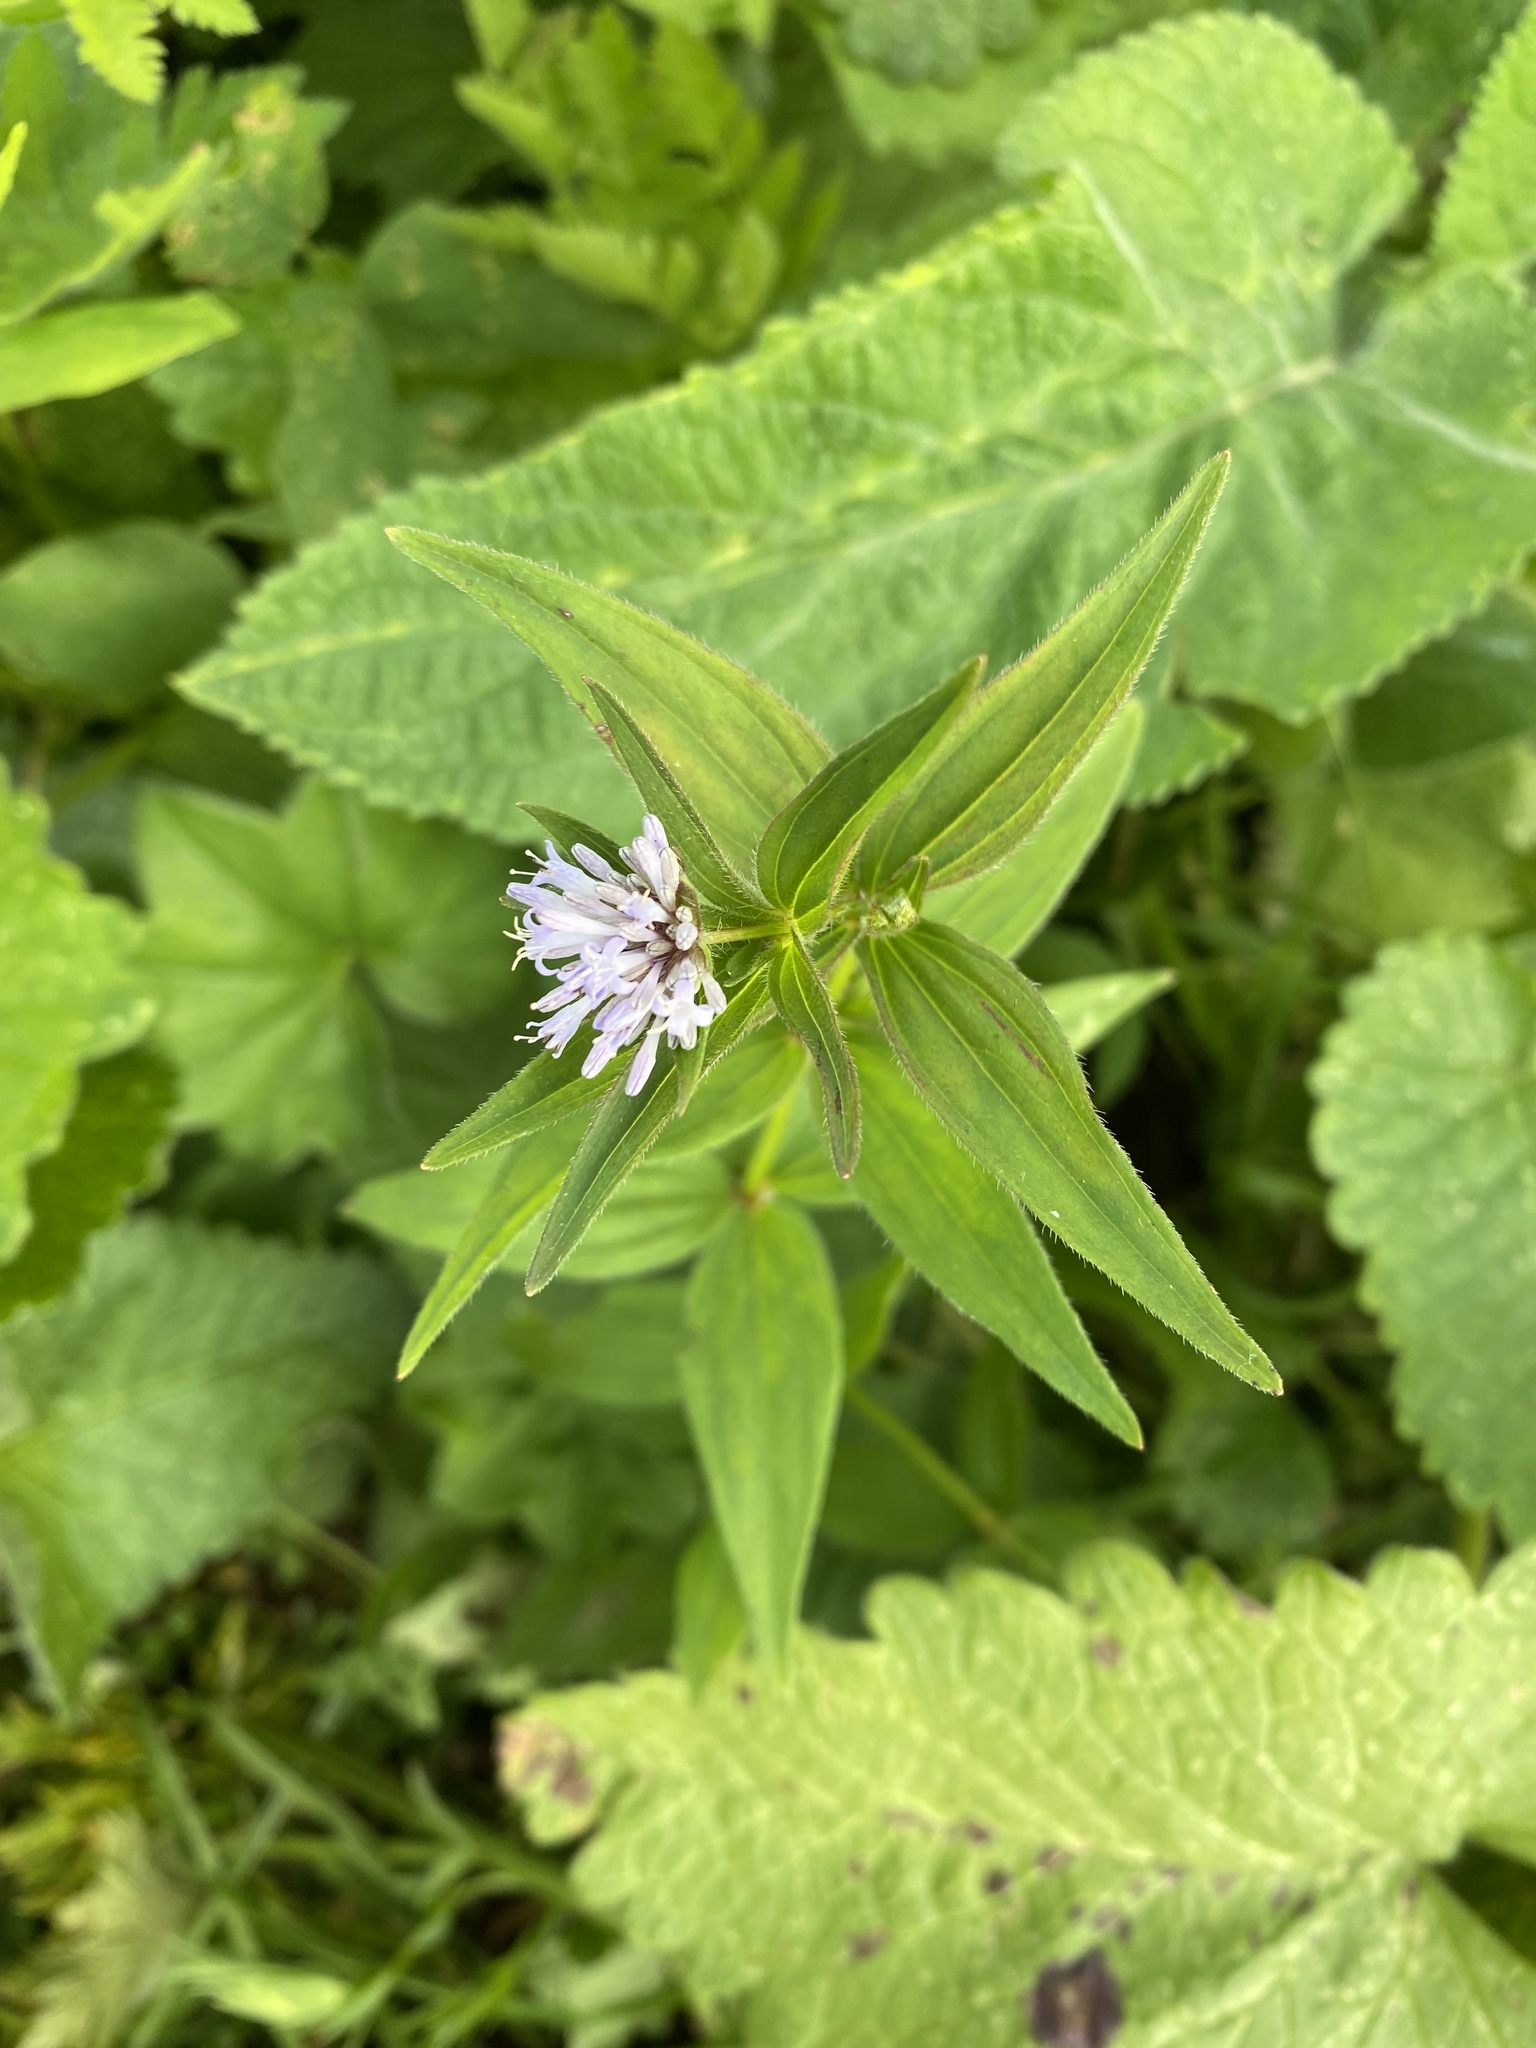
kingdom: Plantae
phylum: Tracheophyta
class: Magnoliopsida
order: Gentianales
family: Rubiaceae
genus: Asperula
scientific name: Asperula taurina
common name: Pink woodruff
